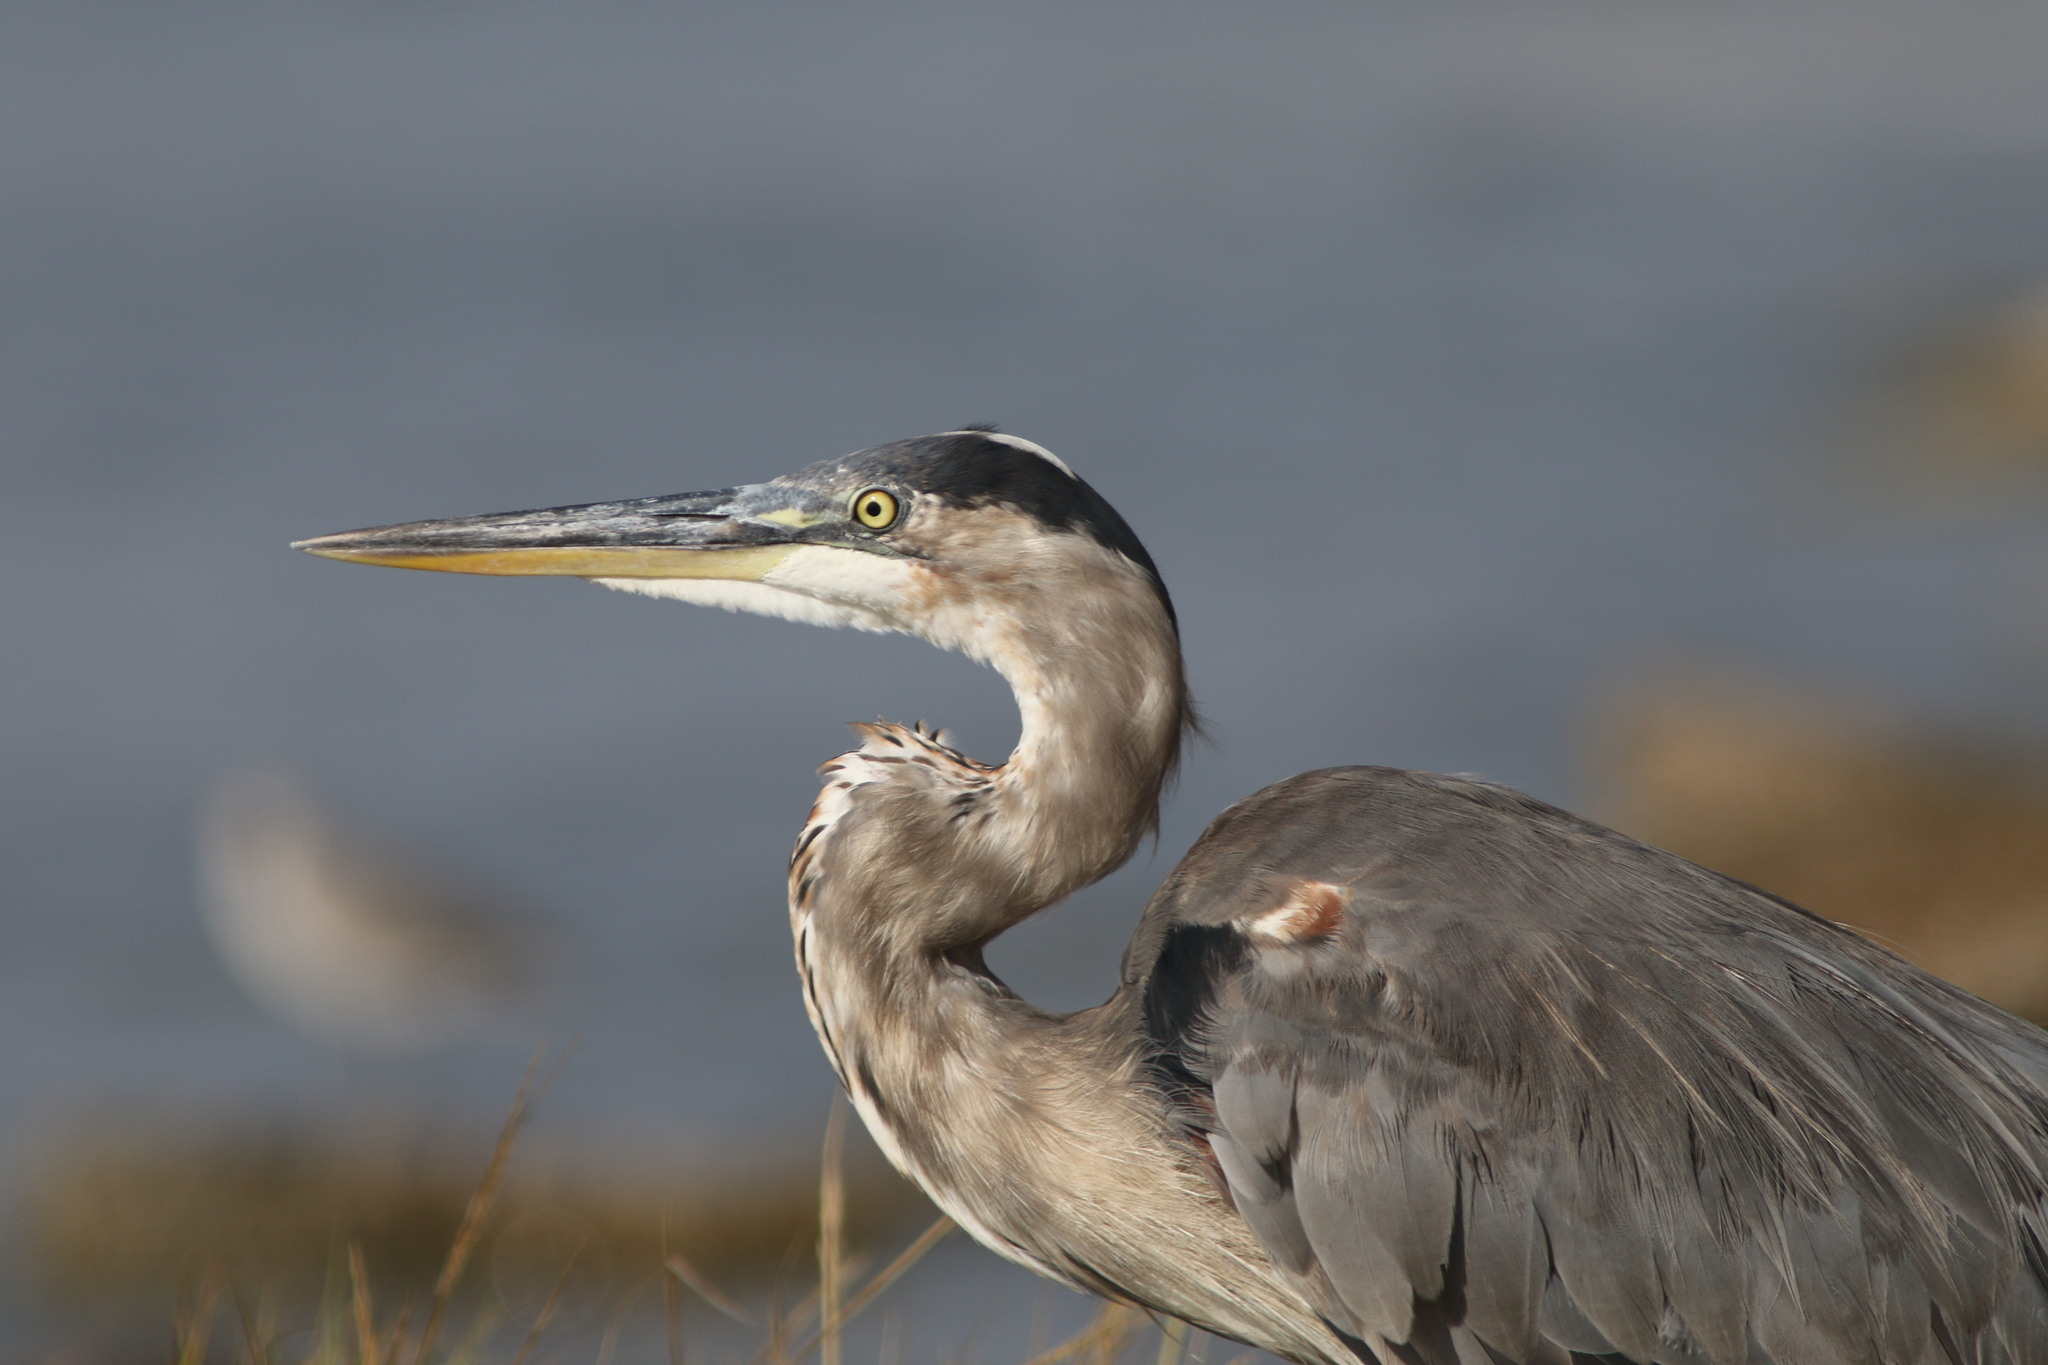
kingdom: Animalia
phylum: Chordata
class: Aves
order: Pelecaniformes
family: Ardeidae
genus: Ardea
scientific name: Ardea herodias
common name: Great blue heron
